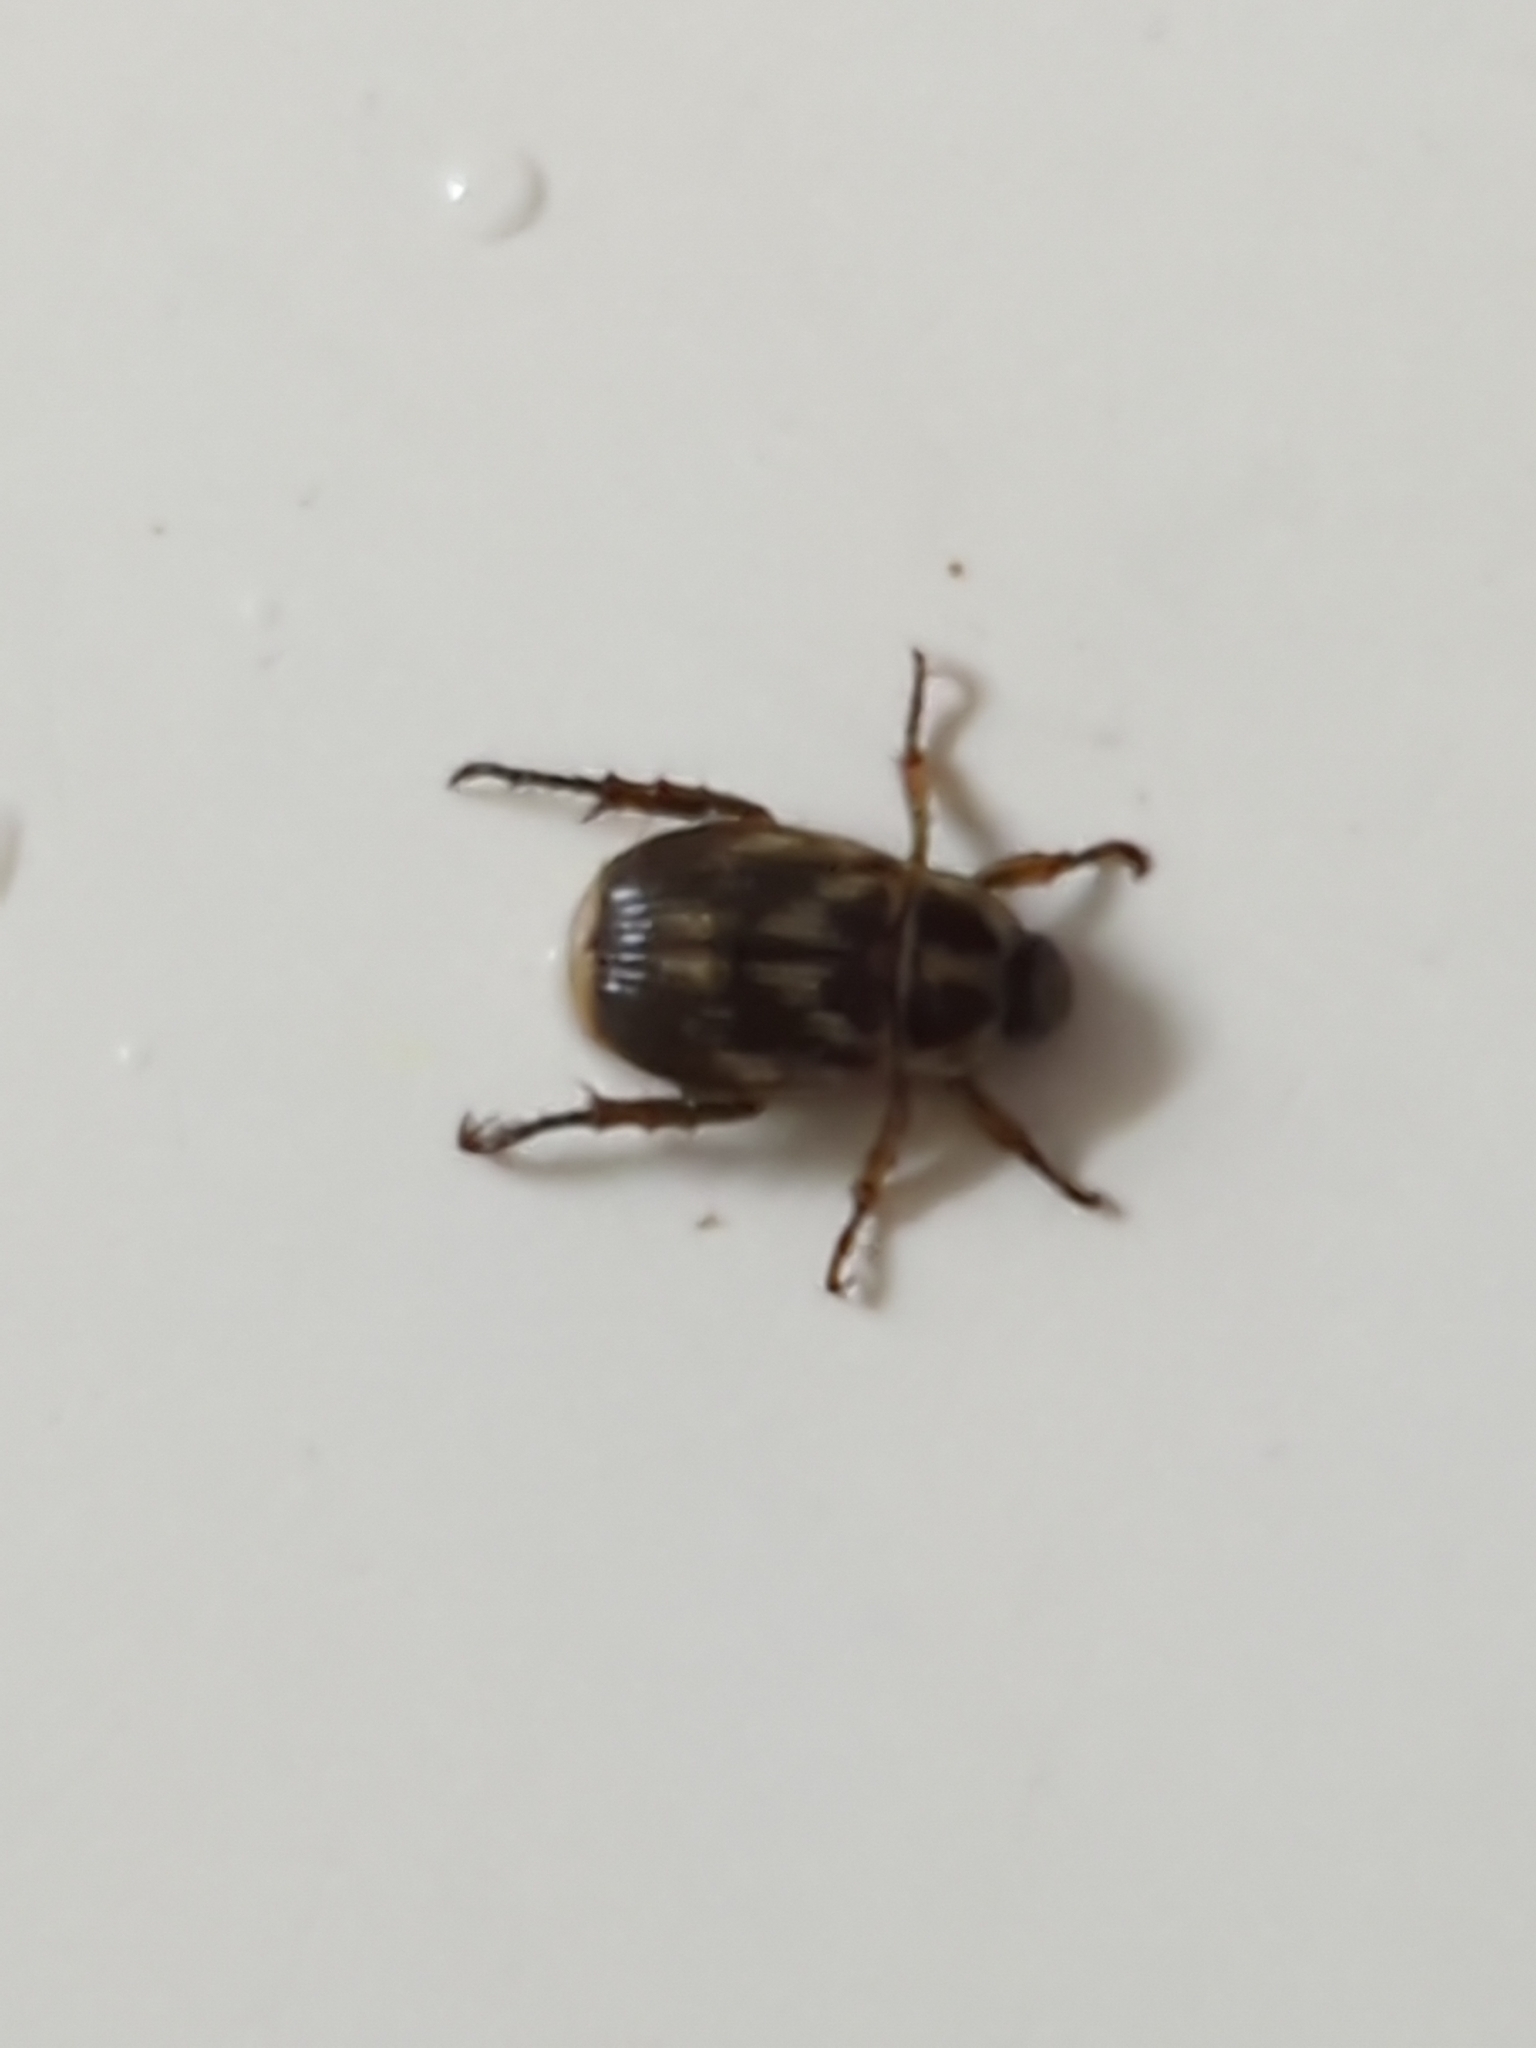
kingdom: Animalia
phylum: Arthropoda
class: Insecta
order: Coleoptera
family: Scarabaeidae
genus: Exomala
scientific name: Exomala orientalis
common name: Oriental beetle
